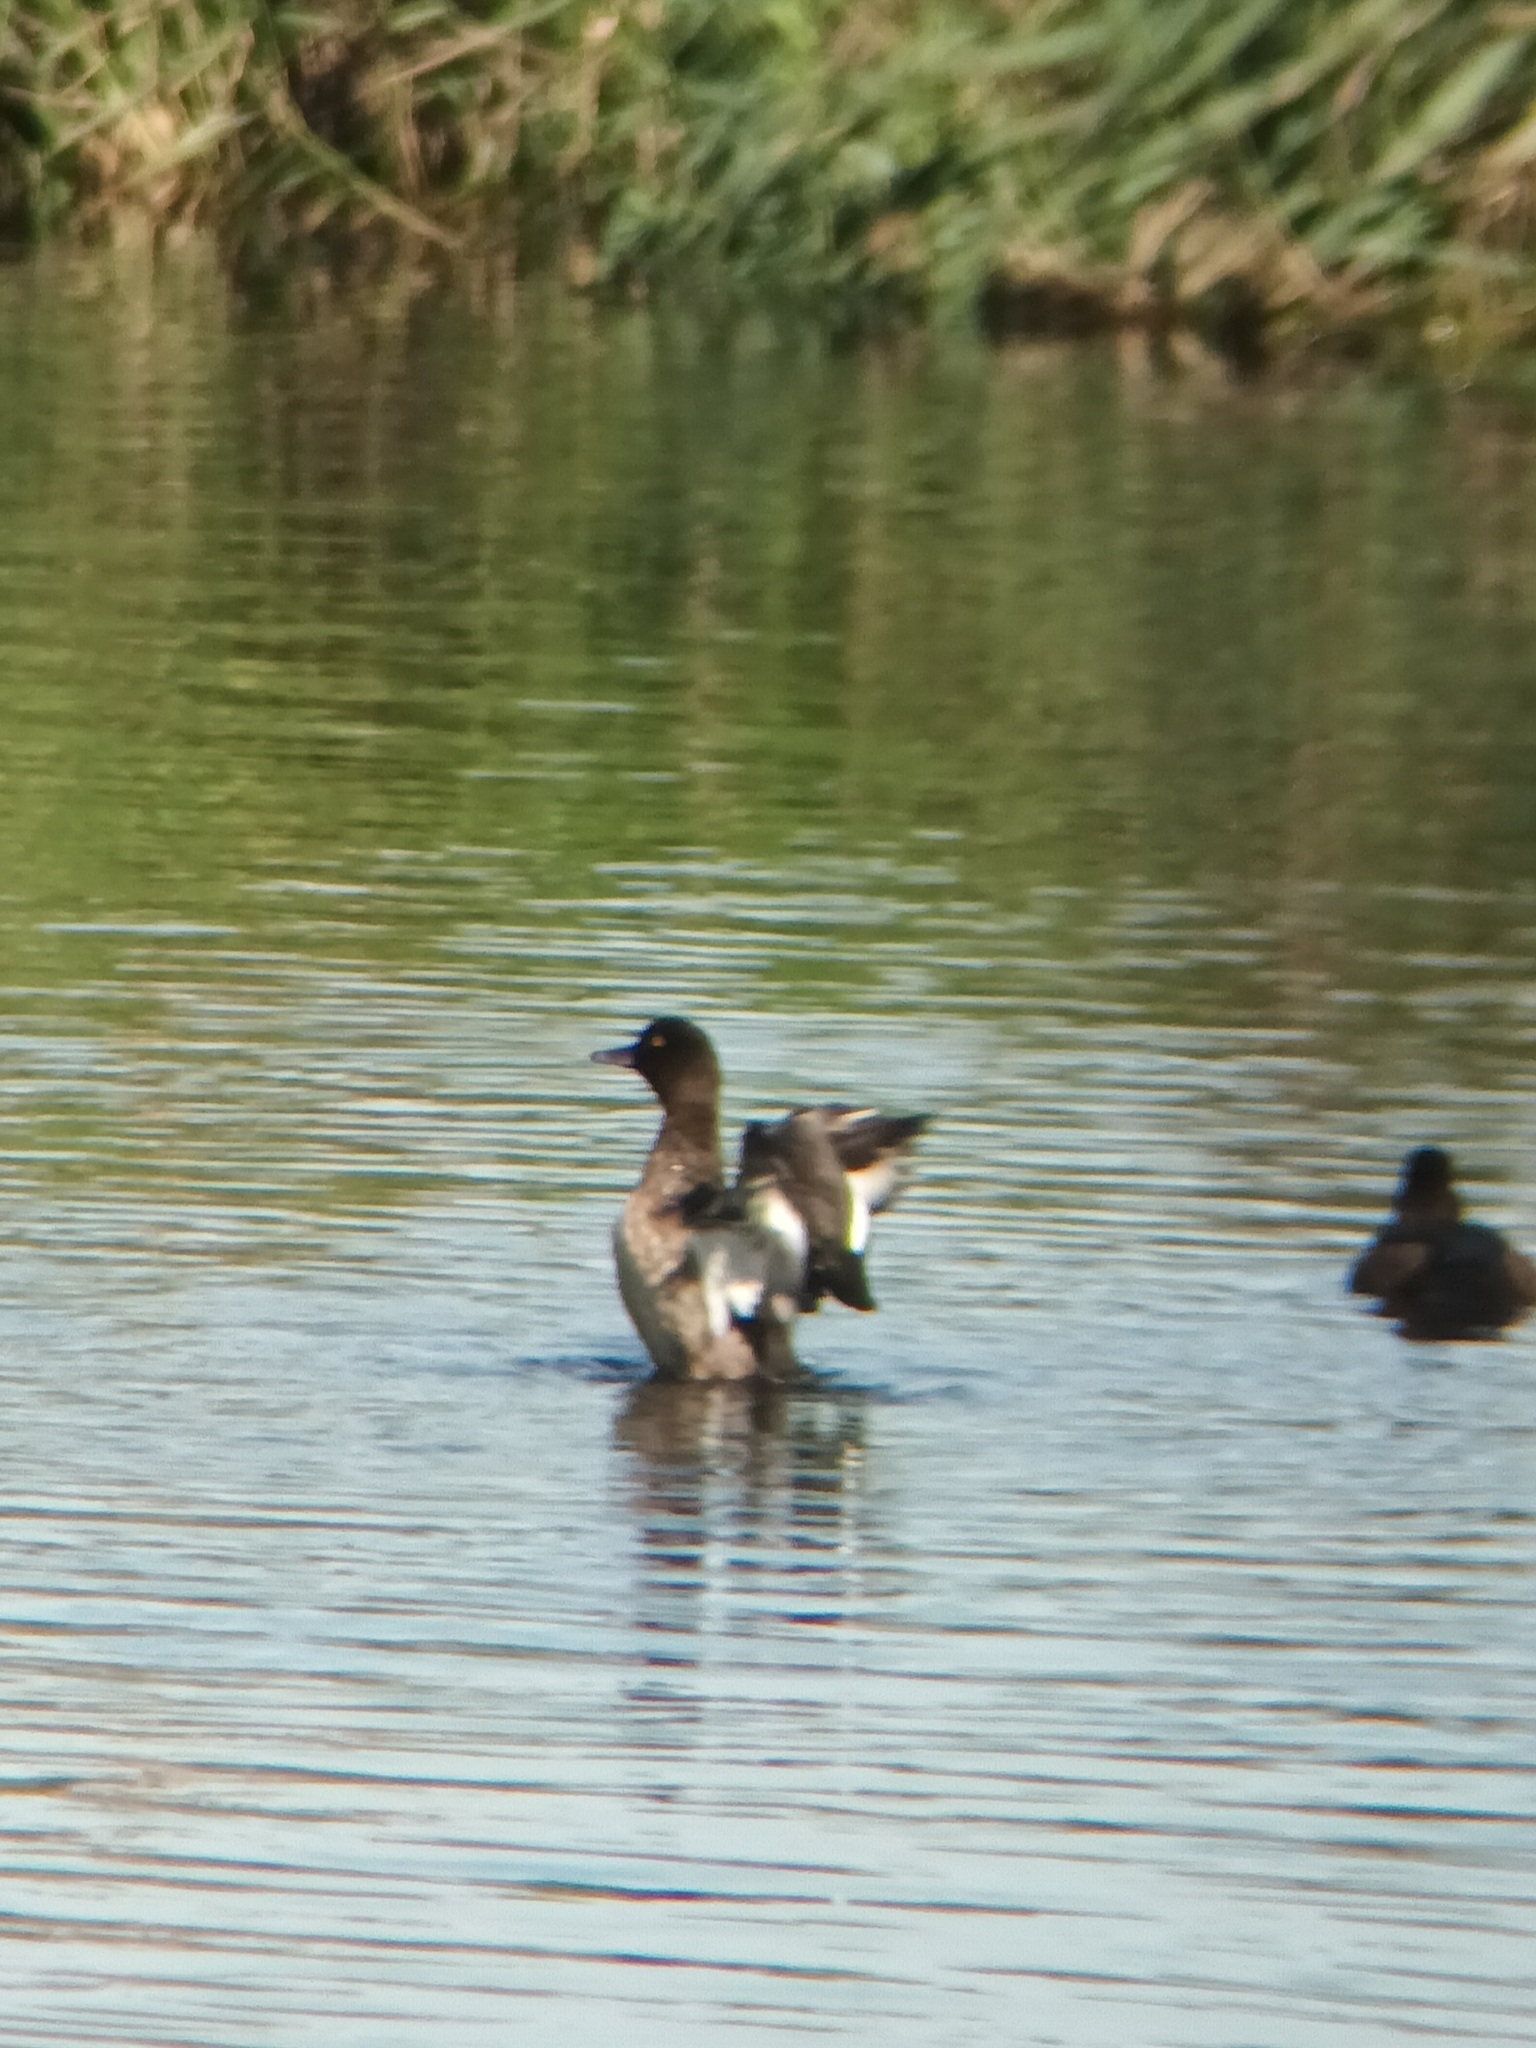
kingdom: Animalia
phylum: Chordata
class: Aves
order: Anseriformes
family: Anatidae
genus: Aythya
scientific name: Aythya fuligula
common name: Tufted duck
